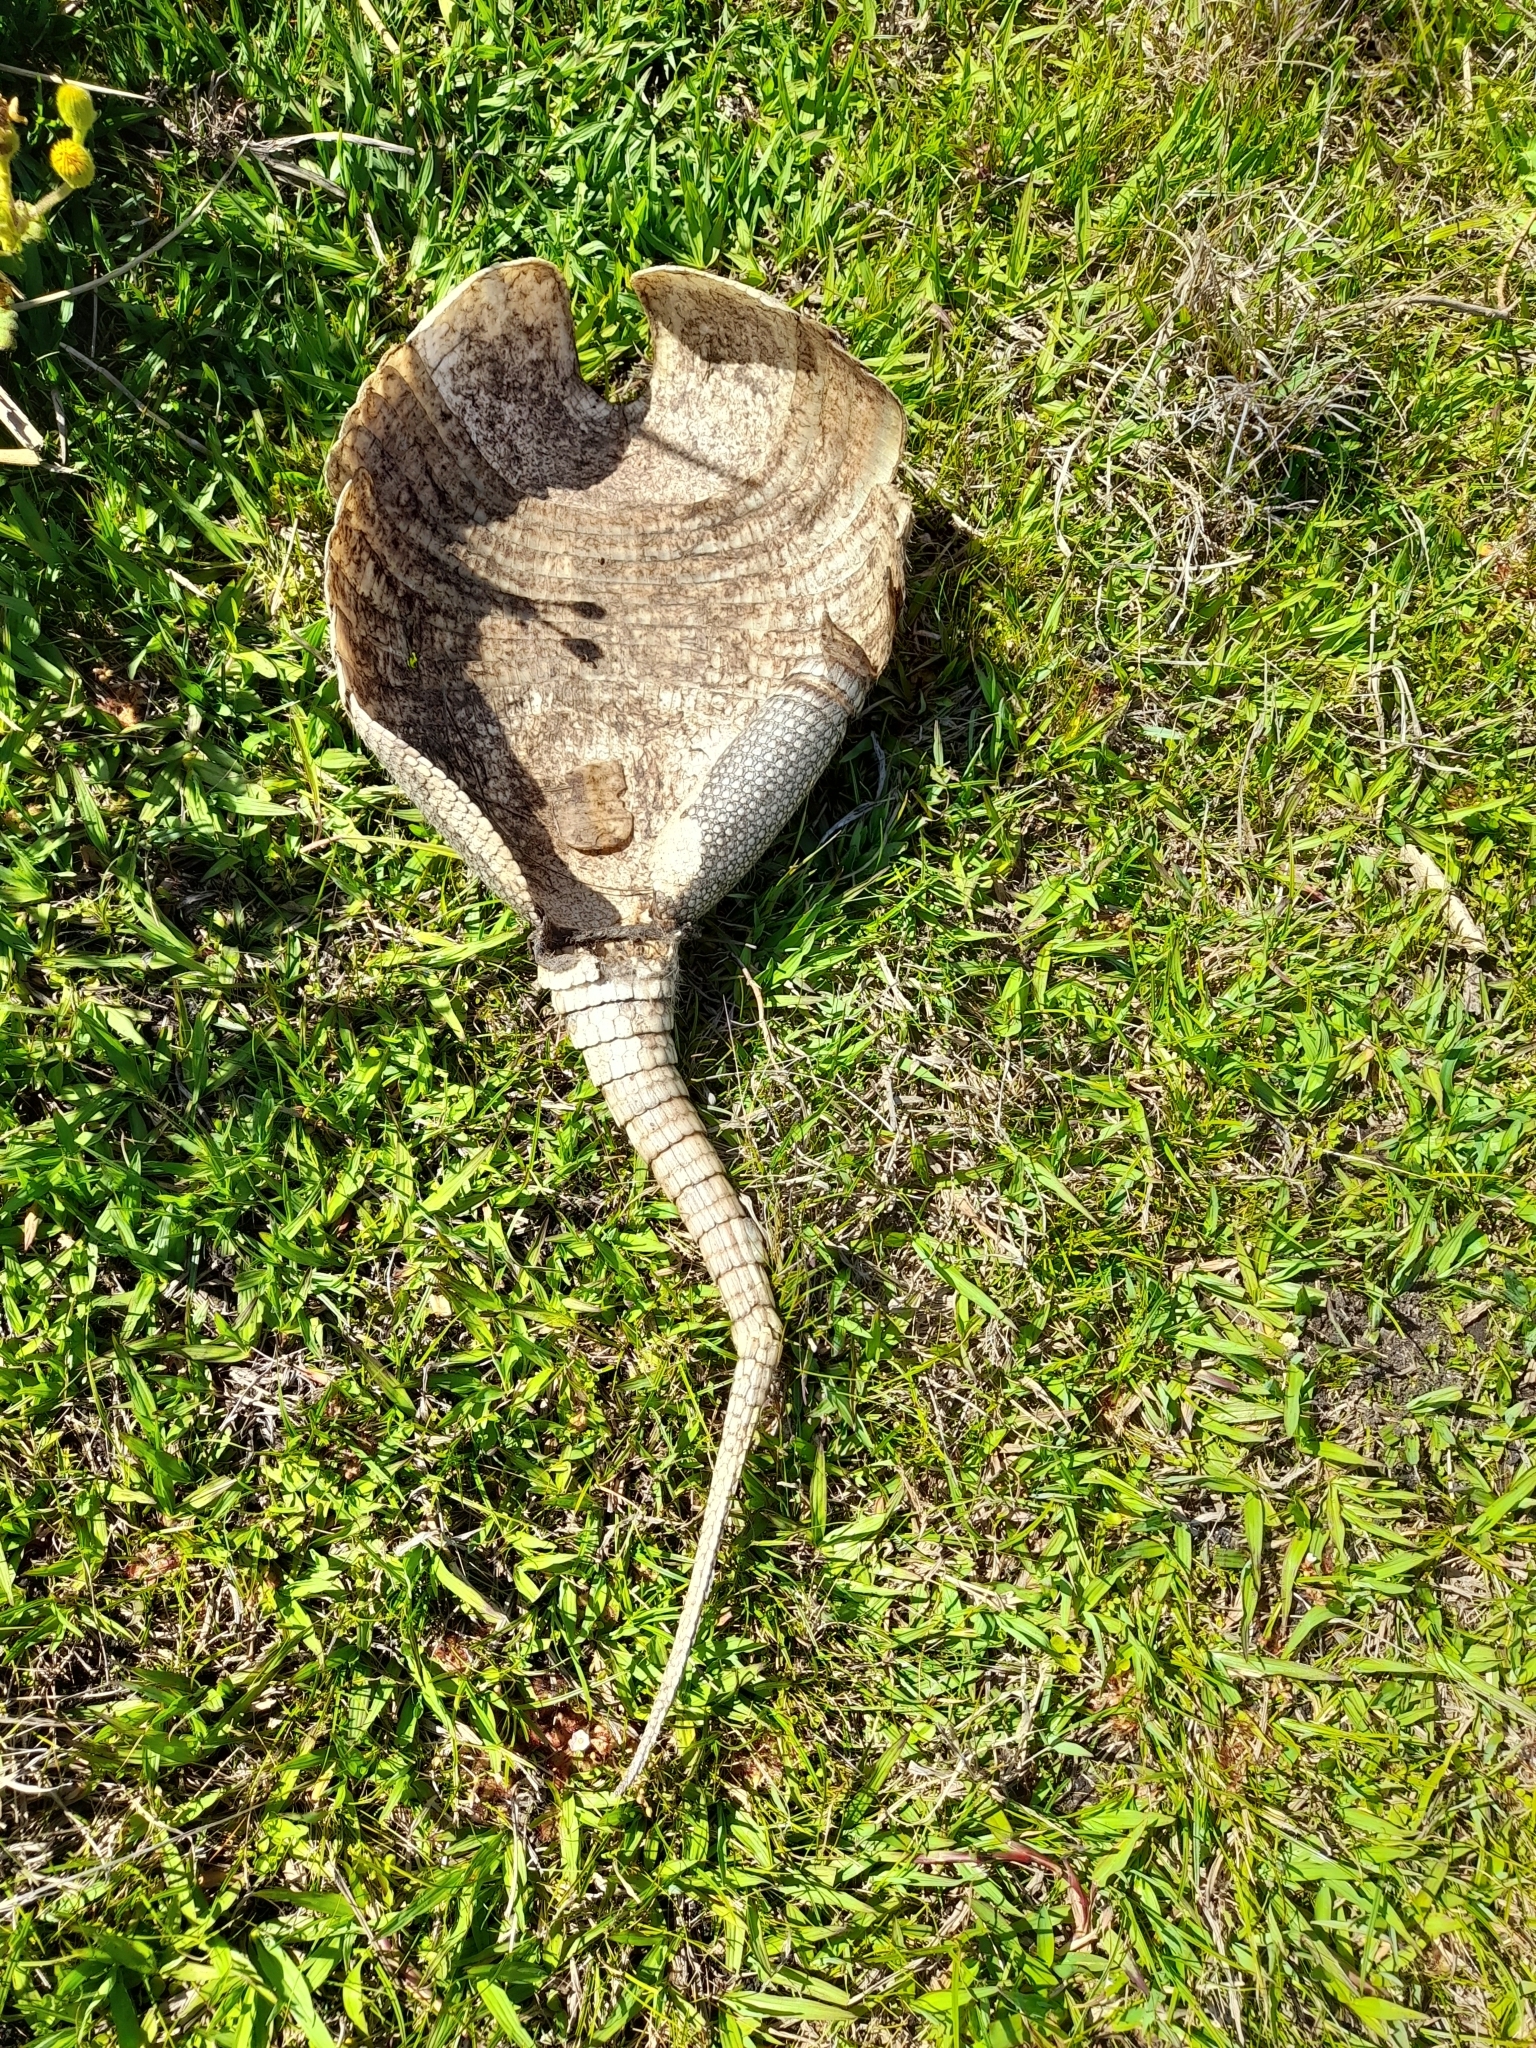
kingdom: Animalia
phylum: Chordata
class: Mammalia
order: Cingulata
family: Dasypodidae
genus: Dasypus
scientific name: Dasypus novemcinctus
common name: Nine-banded armadillo
